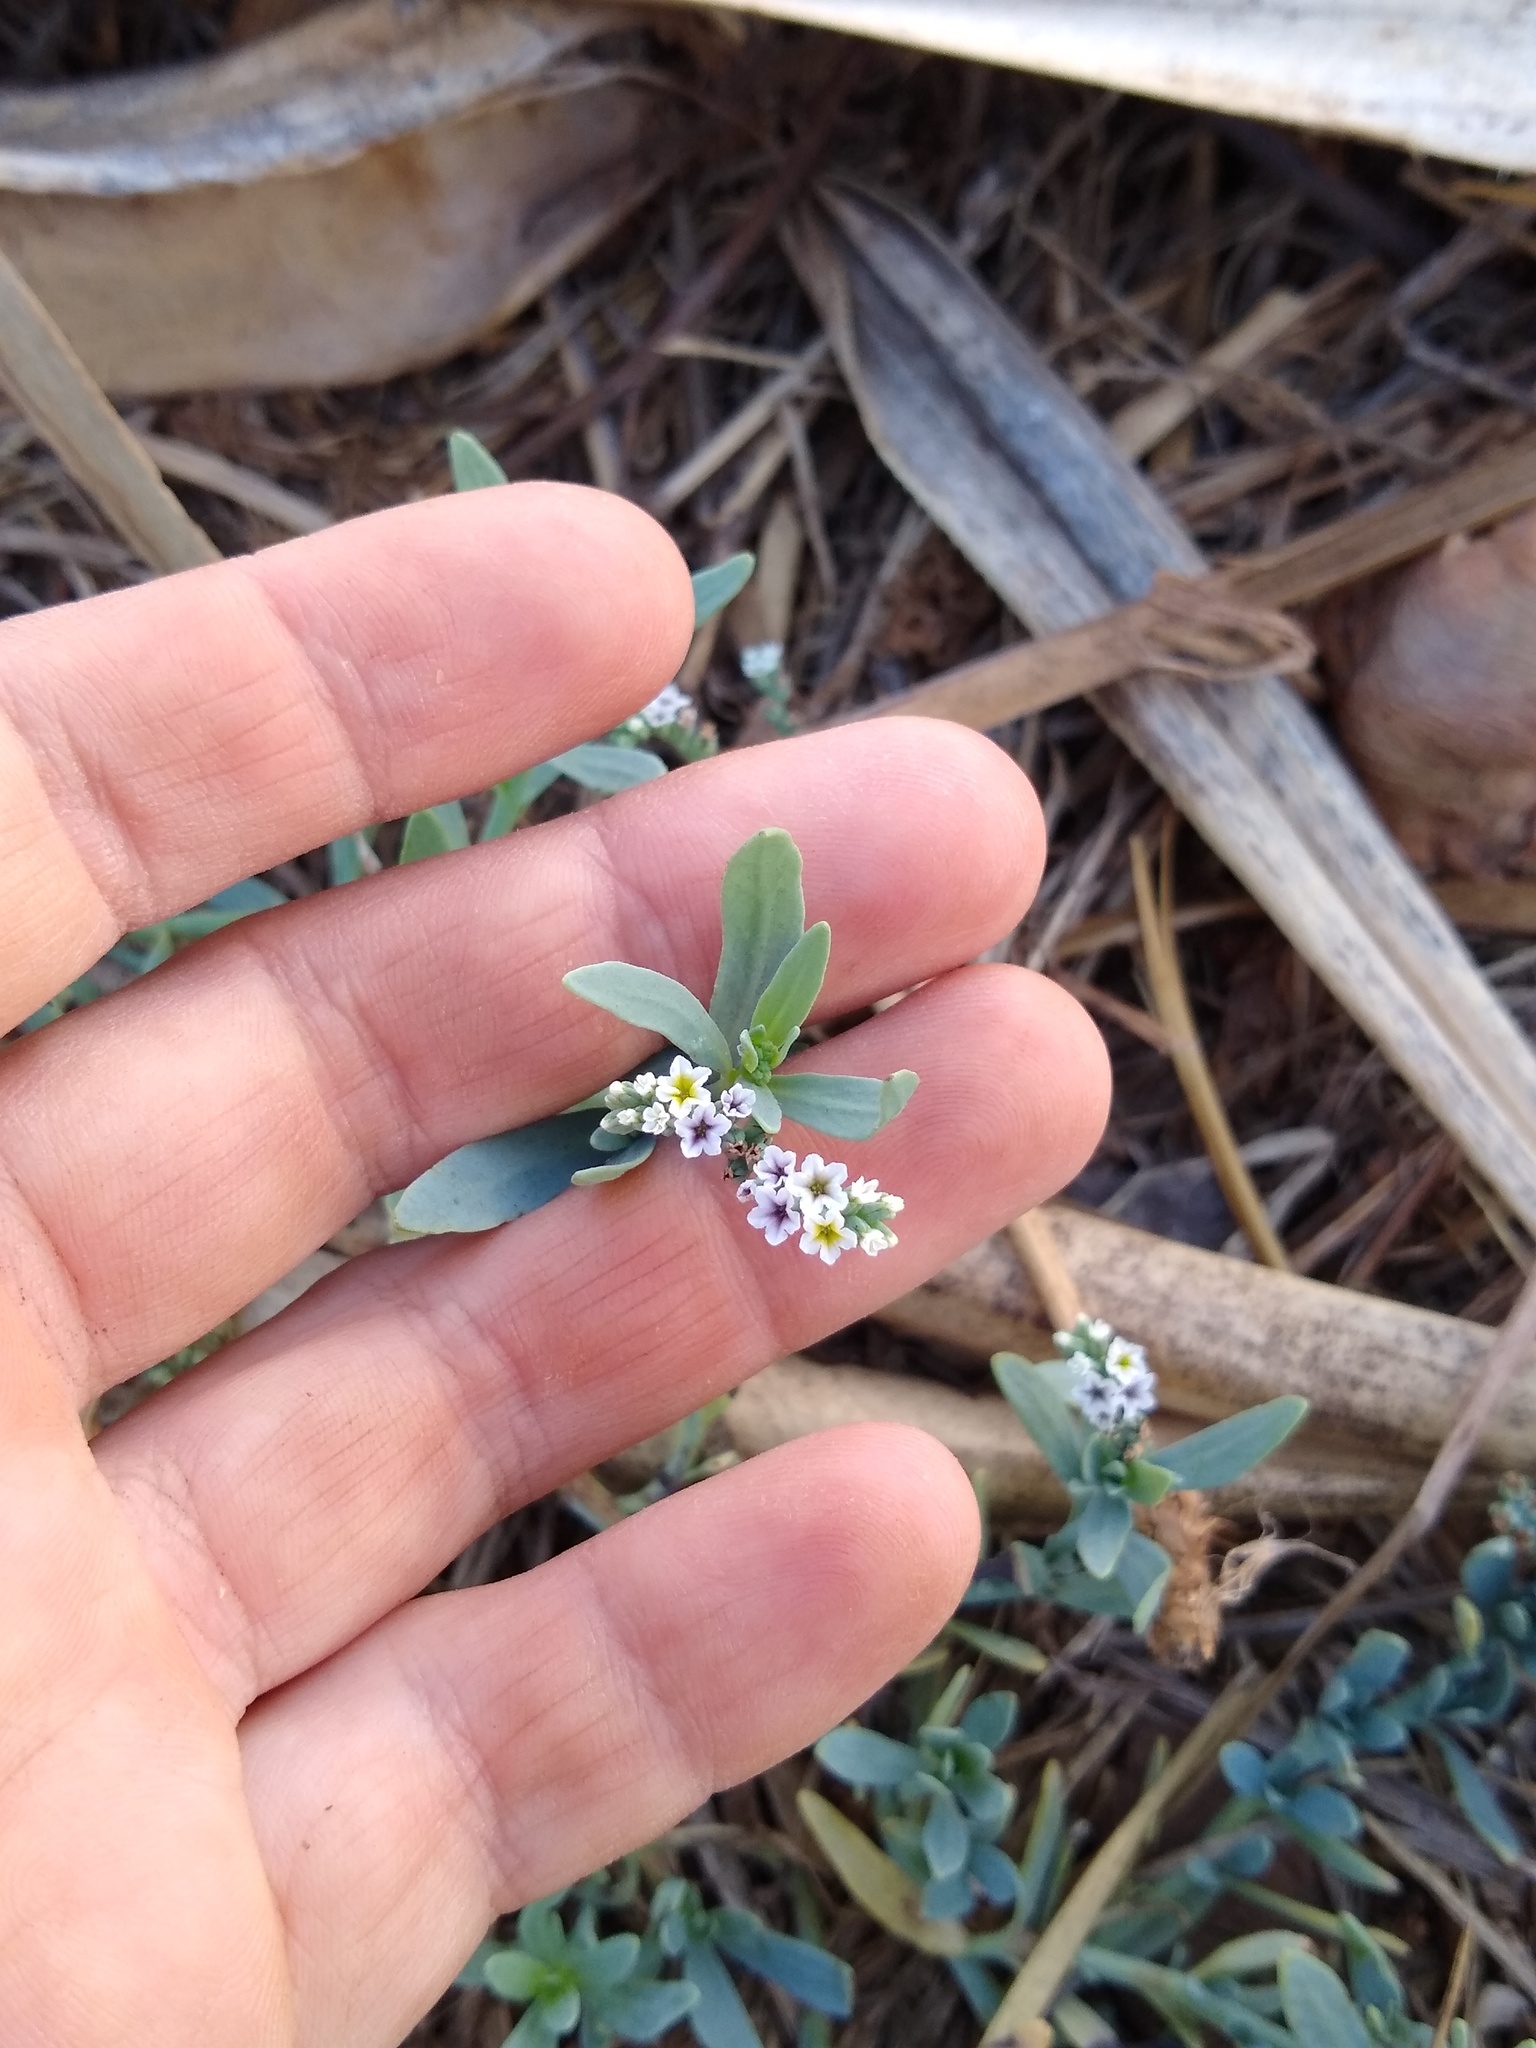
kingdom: Plantae
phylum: Tracheophyta
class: Magnoliopsida
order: Boraginales
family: Heliotropiaceae
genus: Heliotropium
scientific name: Heliotropium curassavicum
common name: Seaside heliotrope
